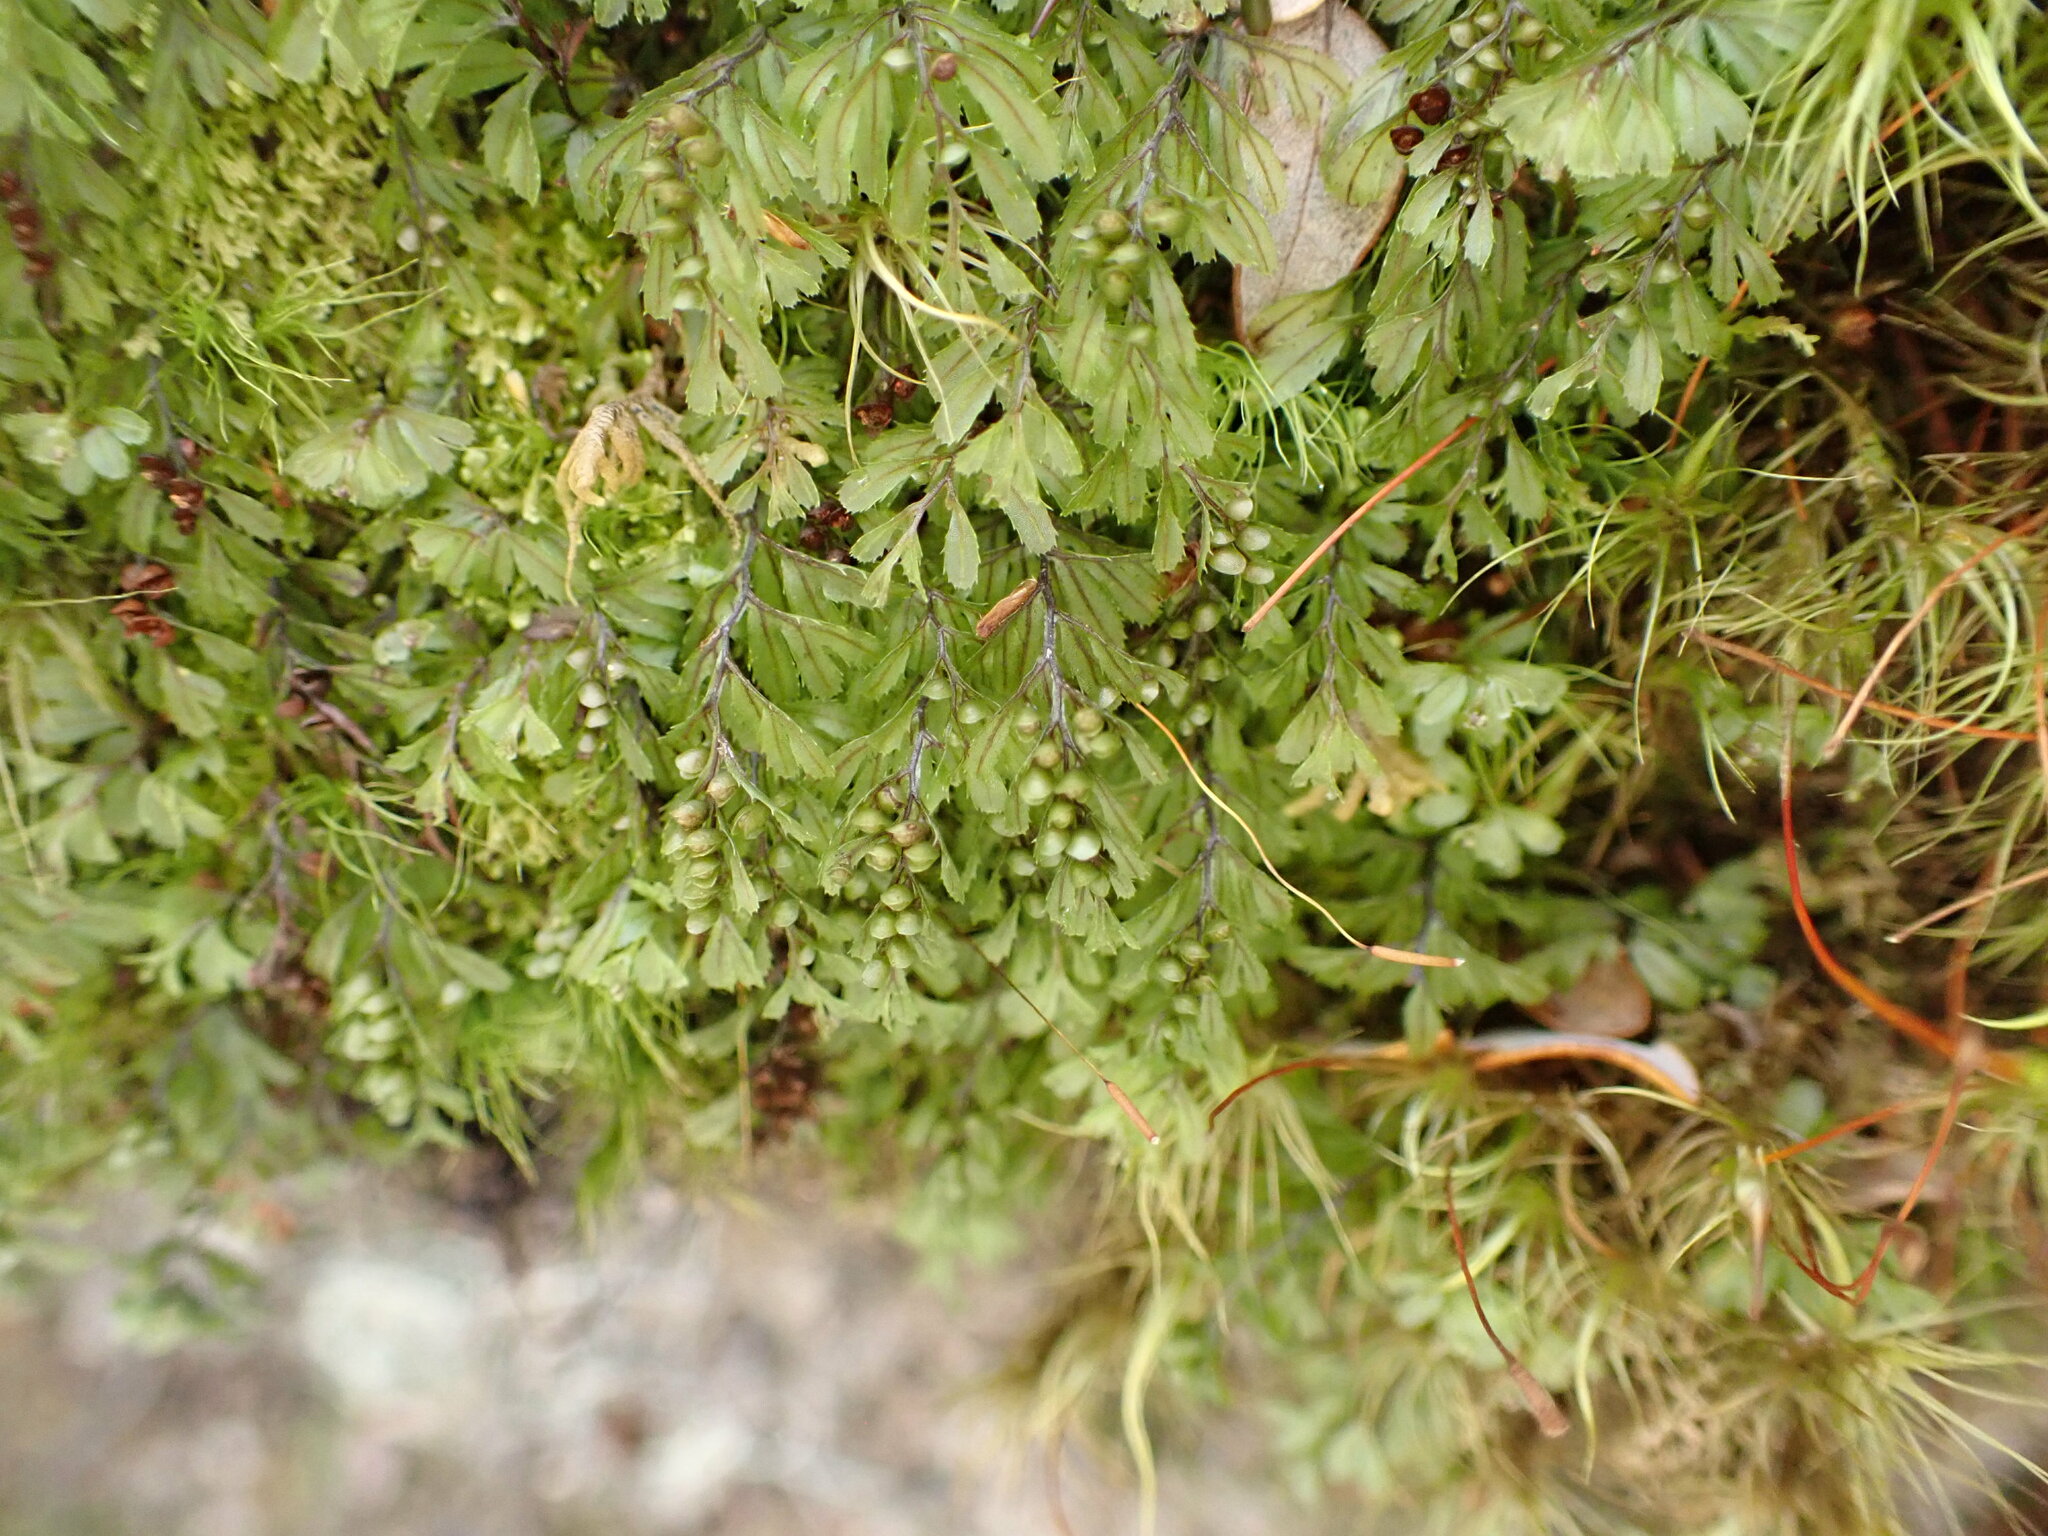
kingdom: Plantae
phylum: Tracheophyta
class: Polypodiopsida
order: Hymenophyllales
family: Hymenophyllaceae
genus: Hymenophyllum
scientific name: Hymenophyllum peltatum
